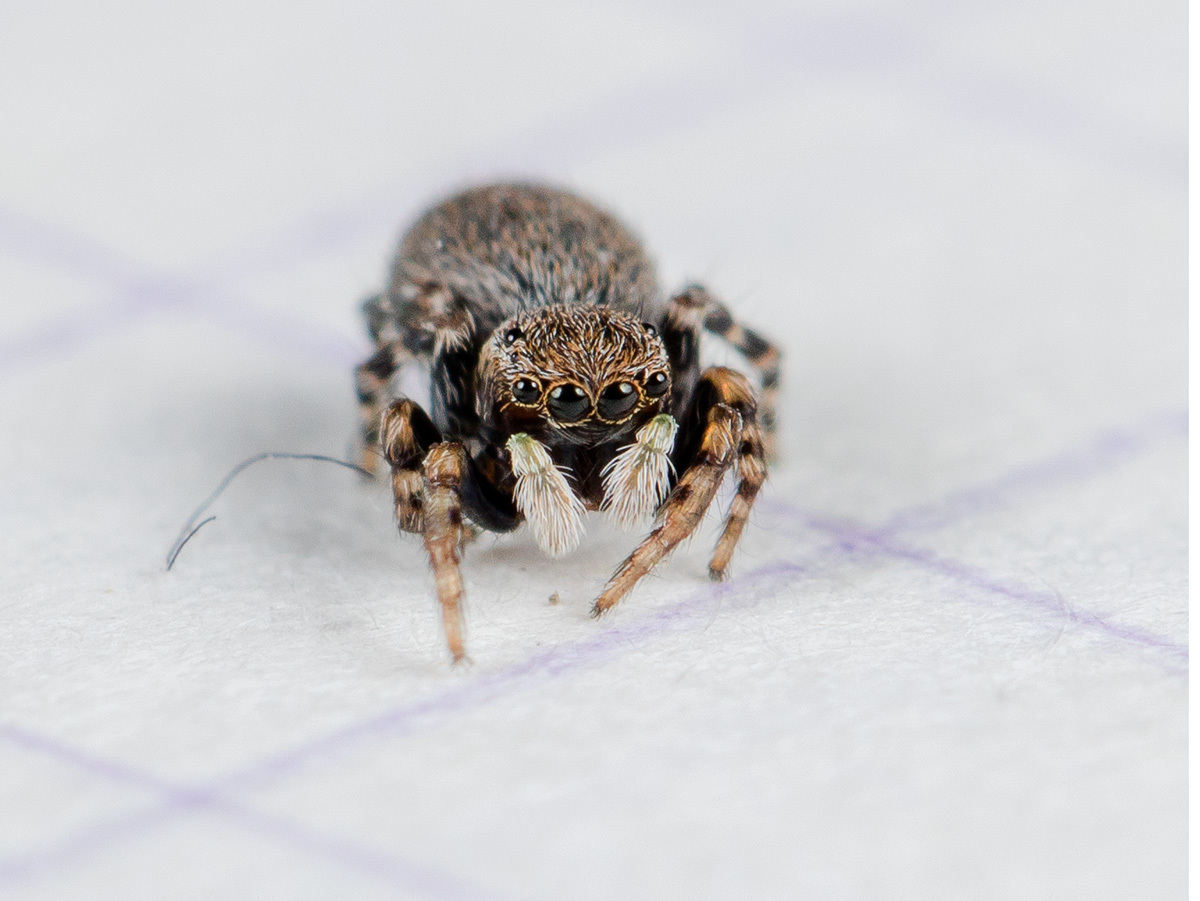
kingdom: Animalia
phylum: Arthropoda
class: Arachnida
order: Araneae
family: Salticidae
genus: Talavera
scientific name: Talavera petrensis
